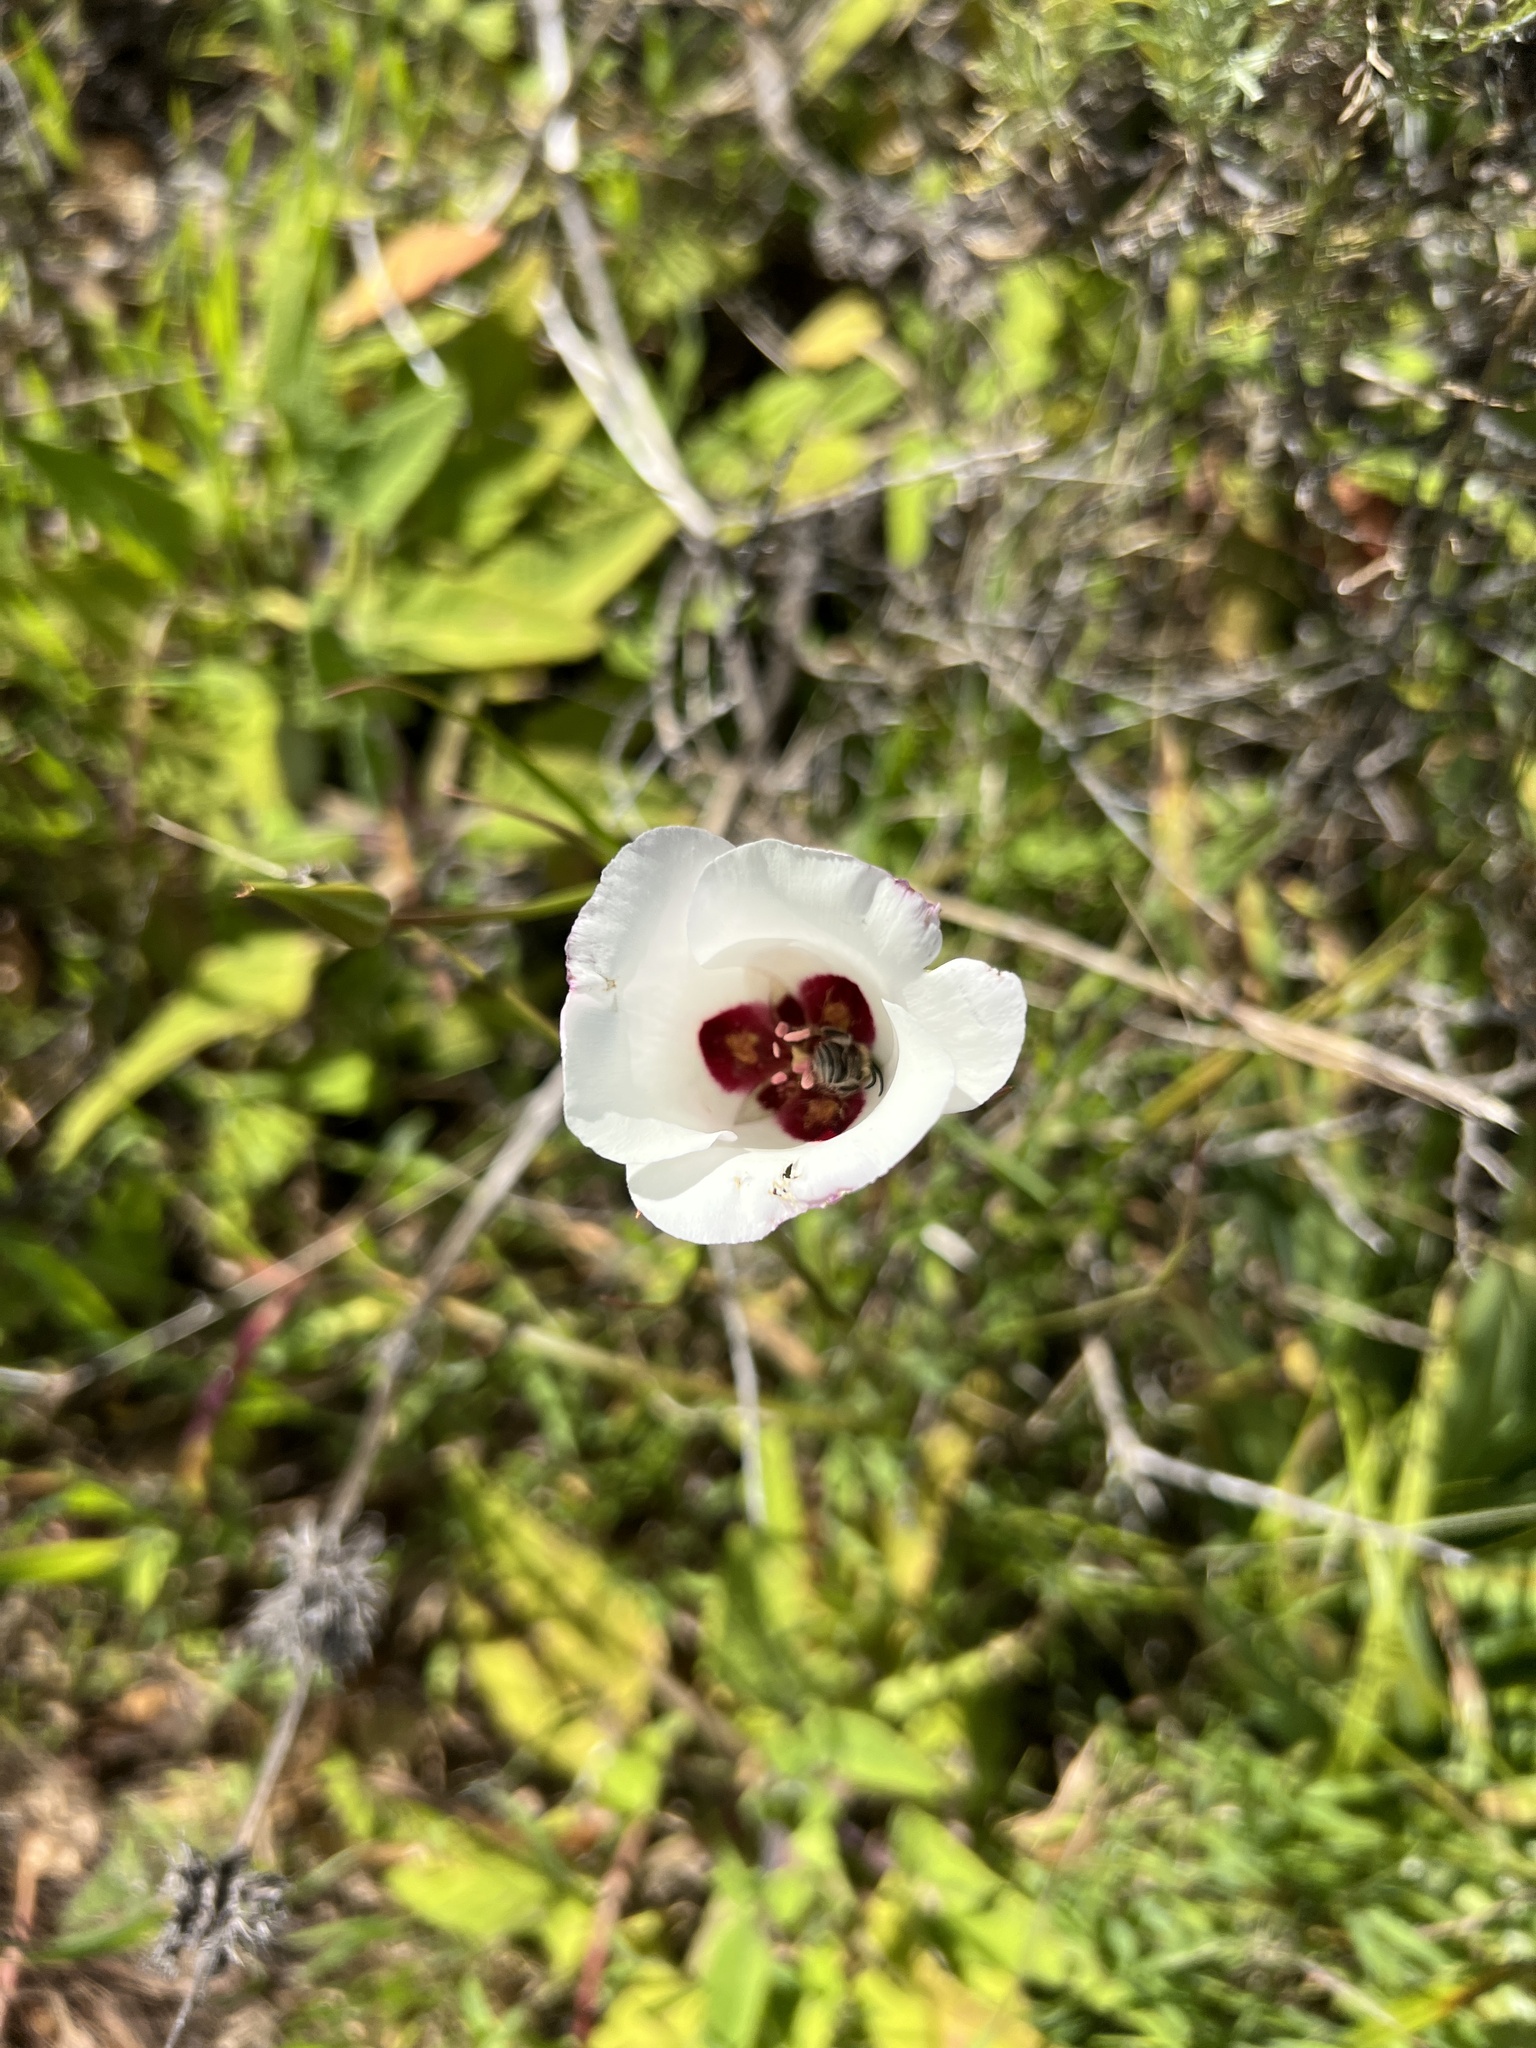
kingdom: Plantae
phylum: Tracheophyta
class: Liliopsida
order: Liliales
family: Liliaceae
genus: Calochortus
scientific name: Calochortus catalinae
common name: Catalina mariposa-lily
